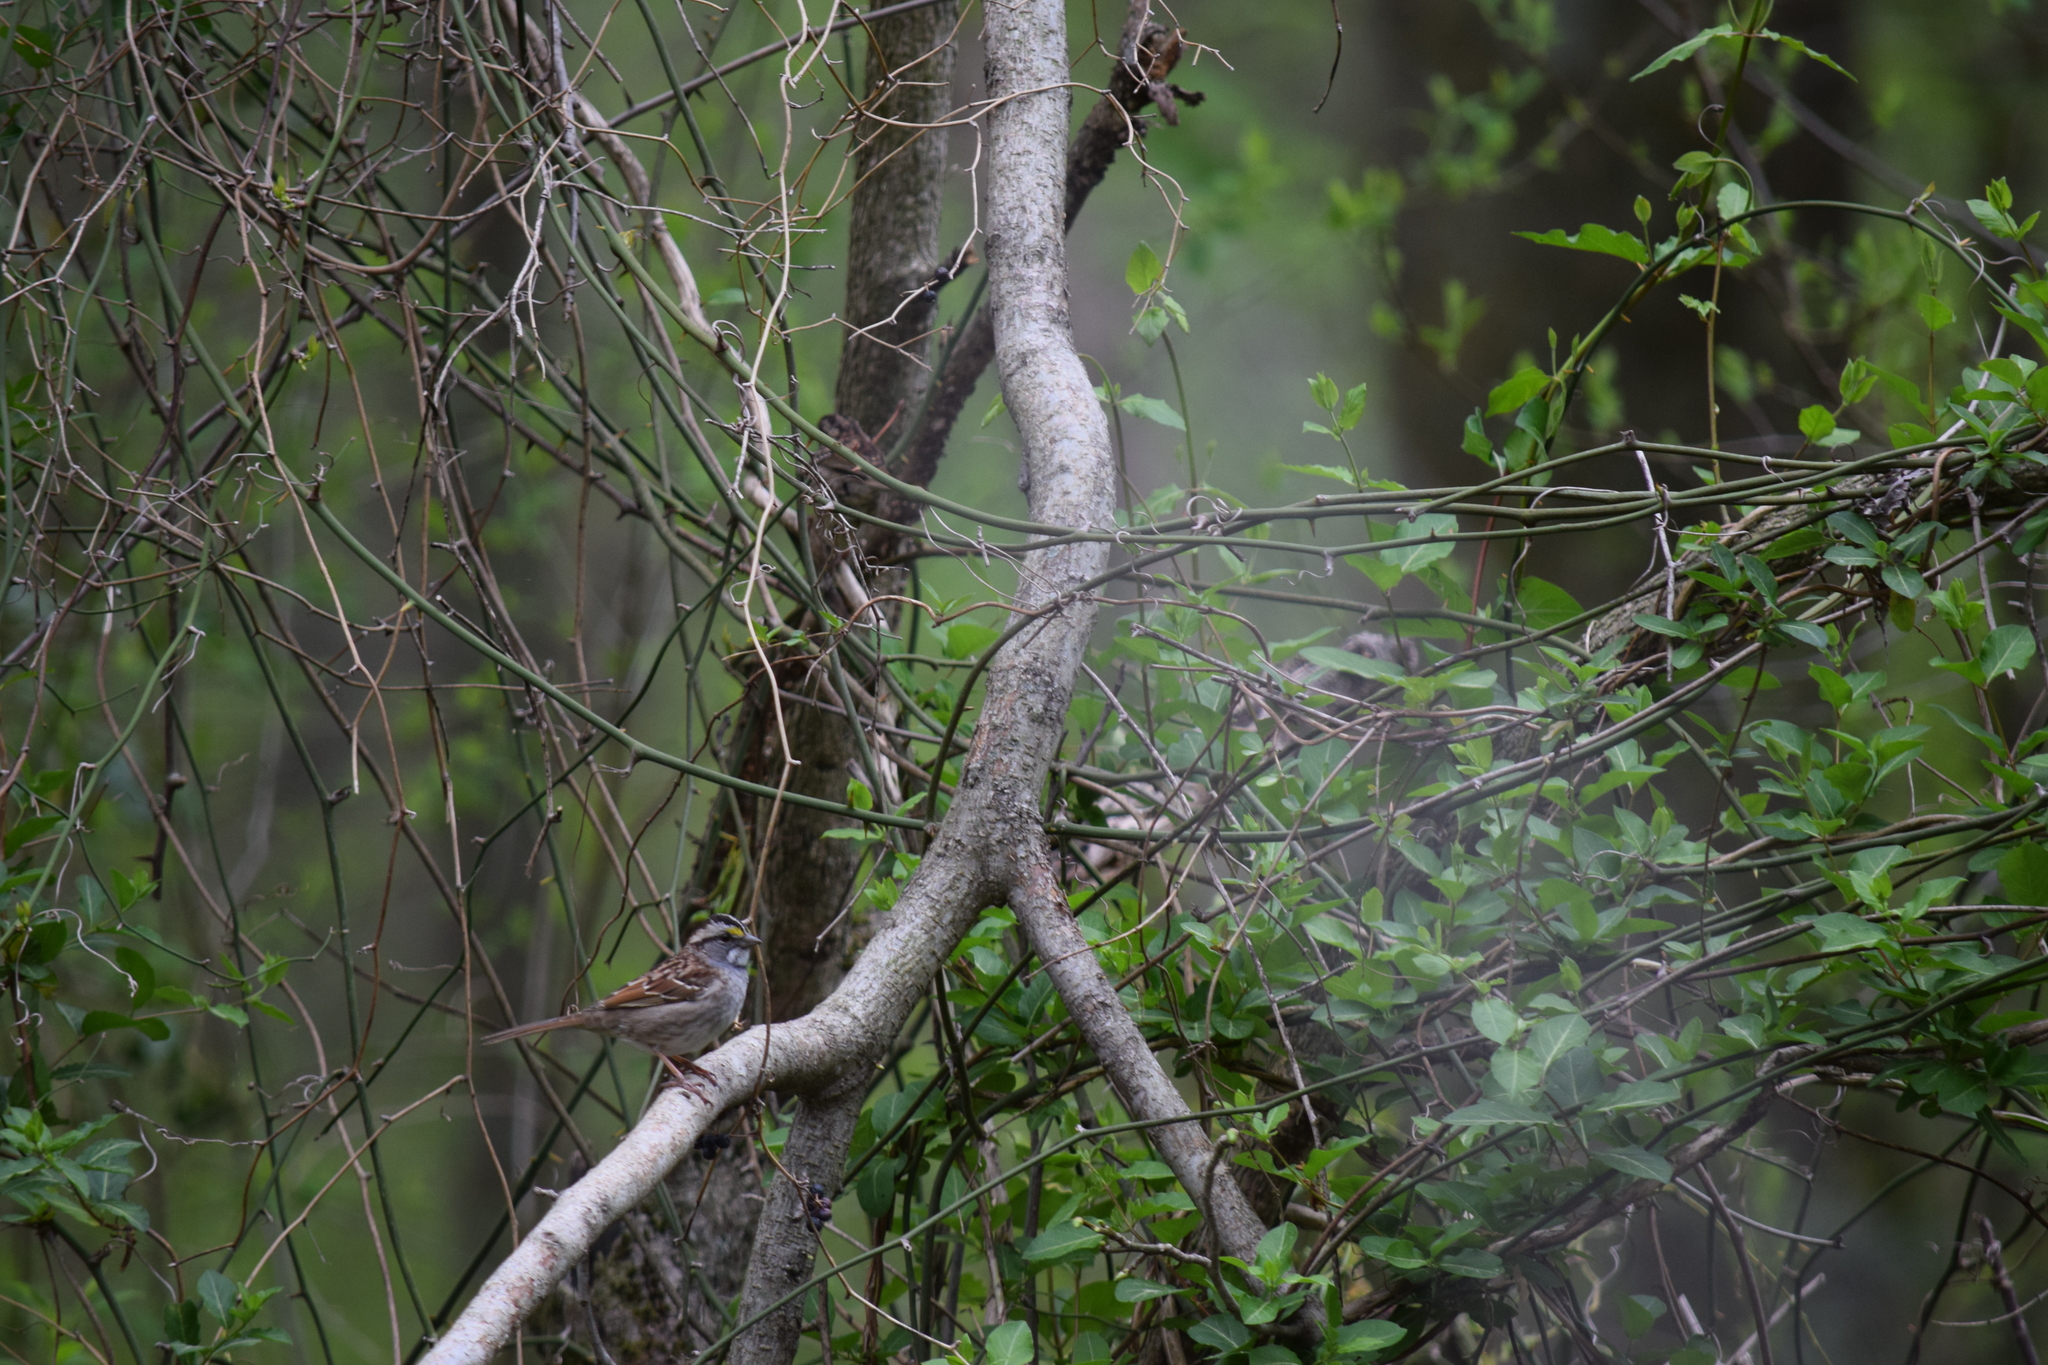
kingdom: Animalia
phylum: Chordata
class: Aves
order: Passeriformes
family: Passerellidae
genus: Zonotrichia
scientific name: Zonotrichia albicollis
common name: White-throated sparrow
